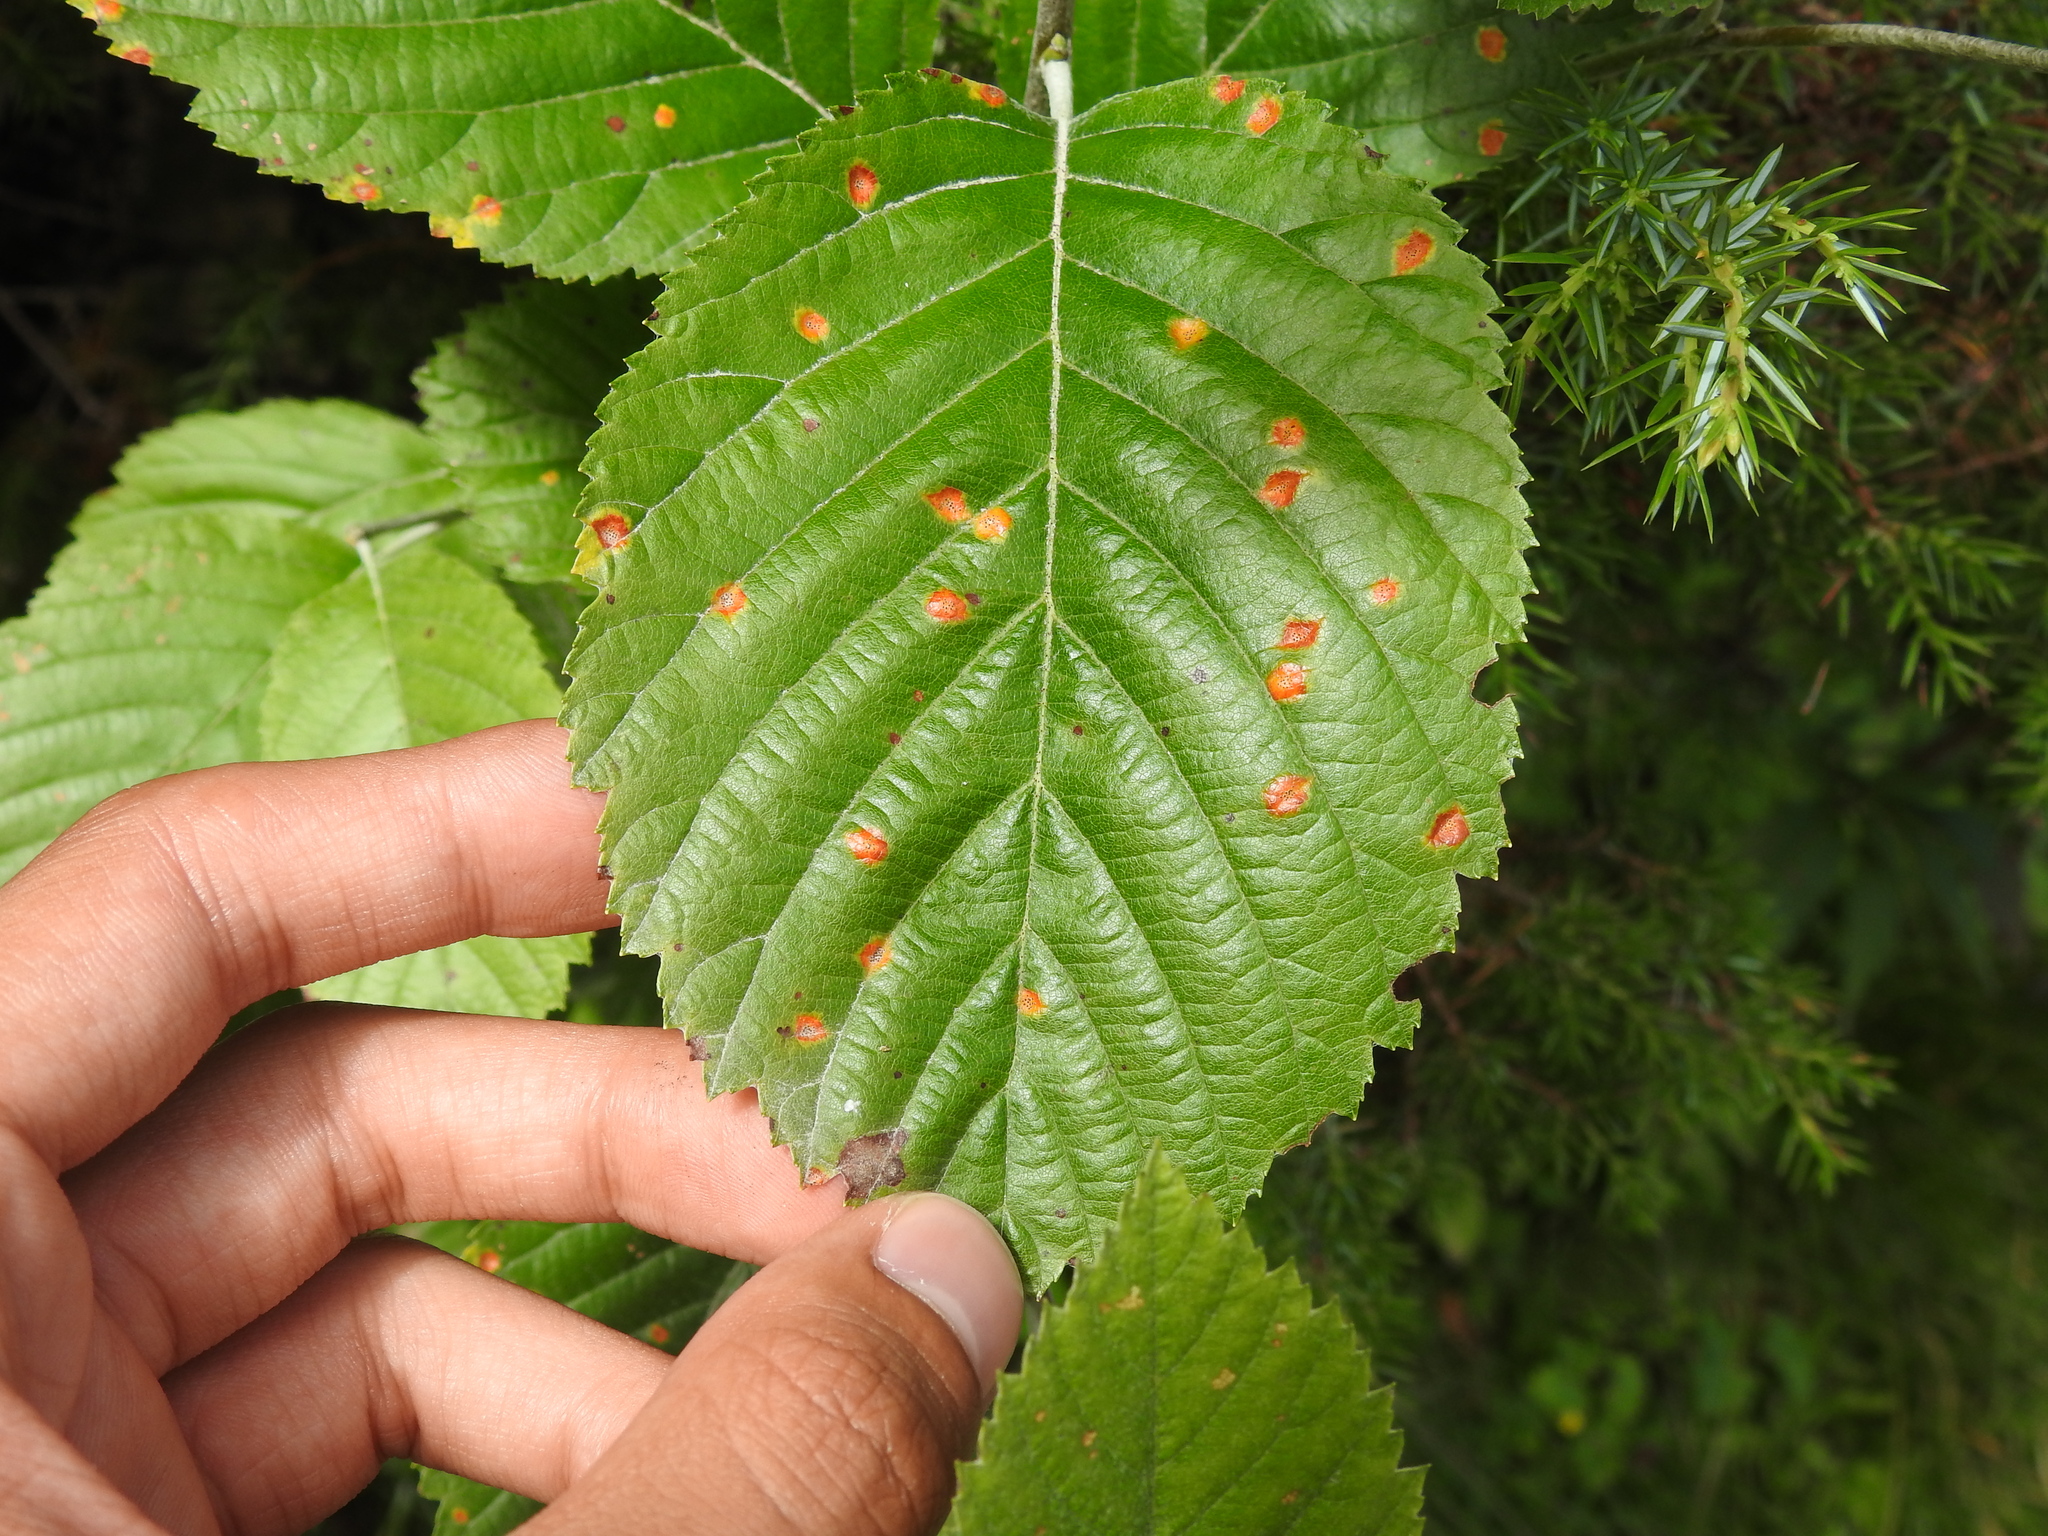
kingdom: Plantae
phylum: Tracheophyta
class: Magnoliopsida
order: Rosales
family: Rosaceae
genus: Aria
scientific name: Aria edulis
